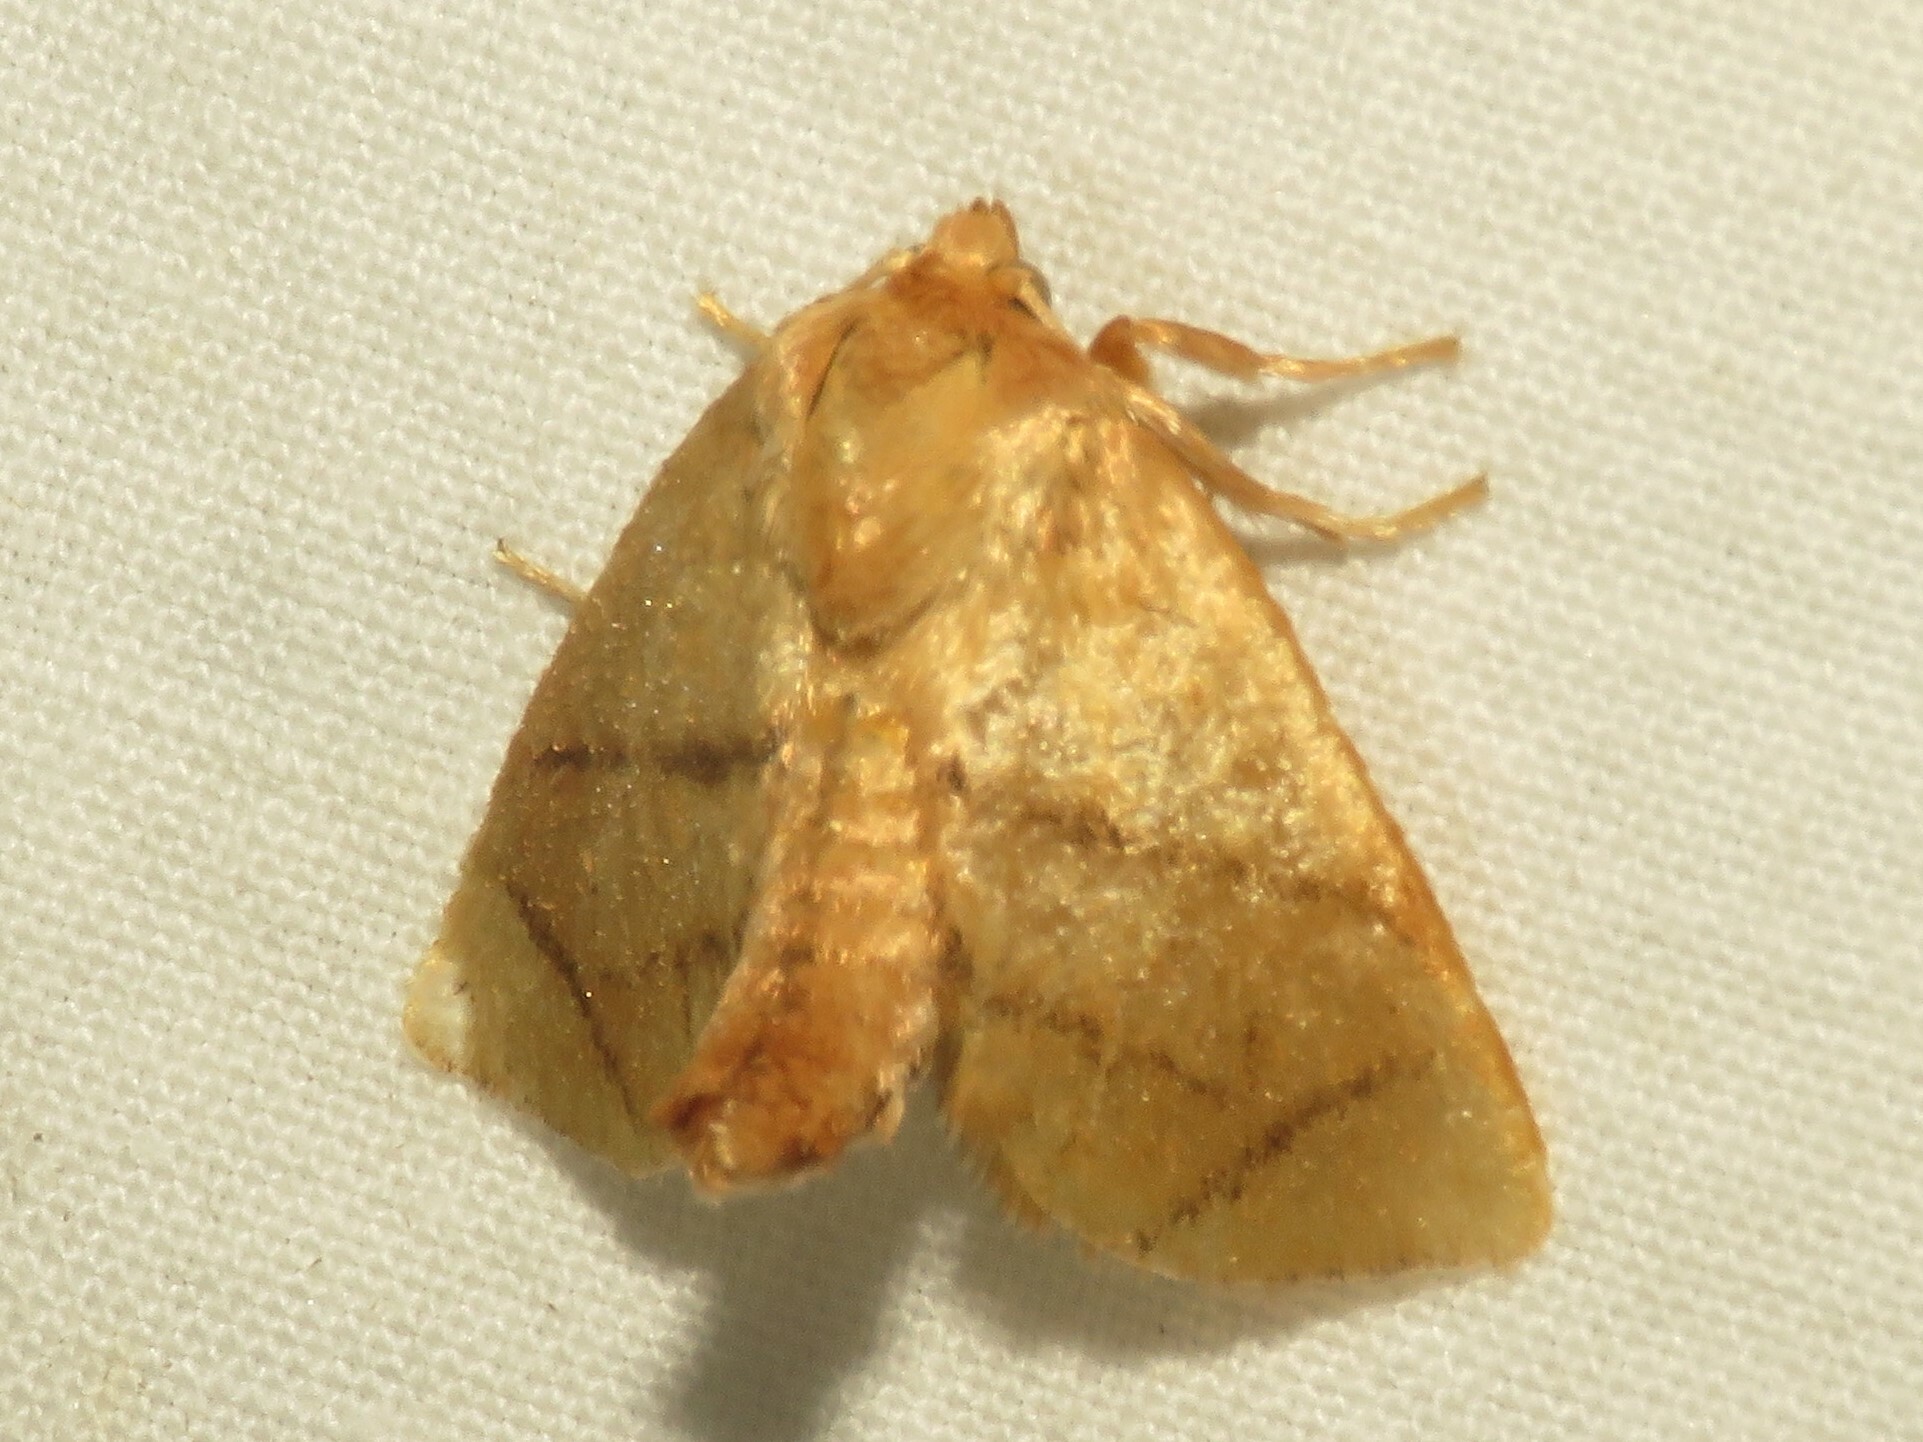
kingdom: Animalia
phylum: Arthropoda
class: Insecta
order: Lepidoptera
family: Limacodidae
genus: Apoda
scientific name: Apoda y-inversa
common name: Yellow-collared slug moth
